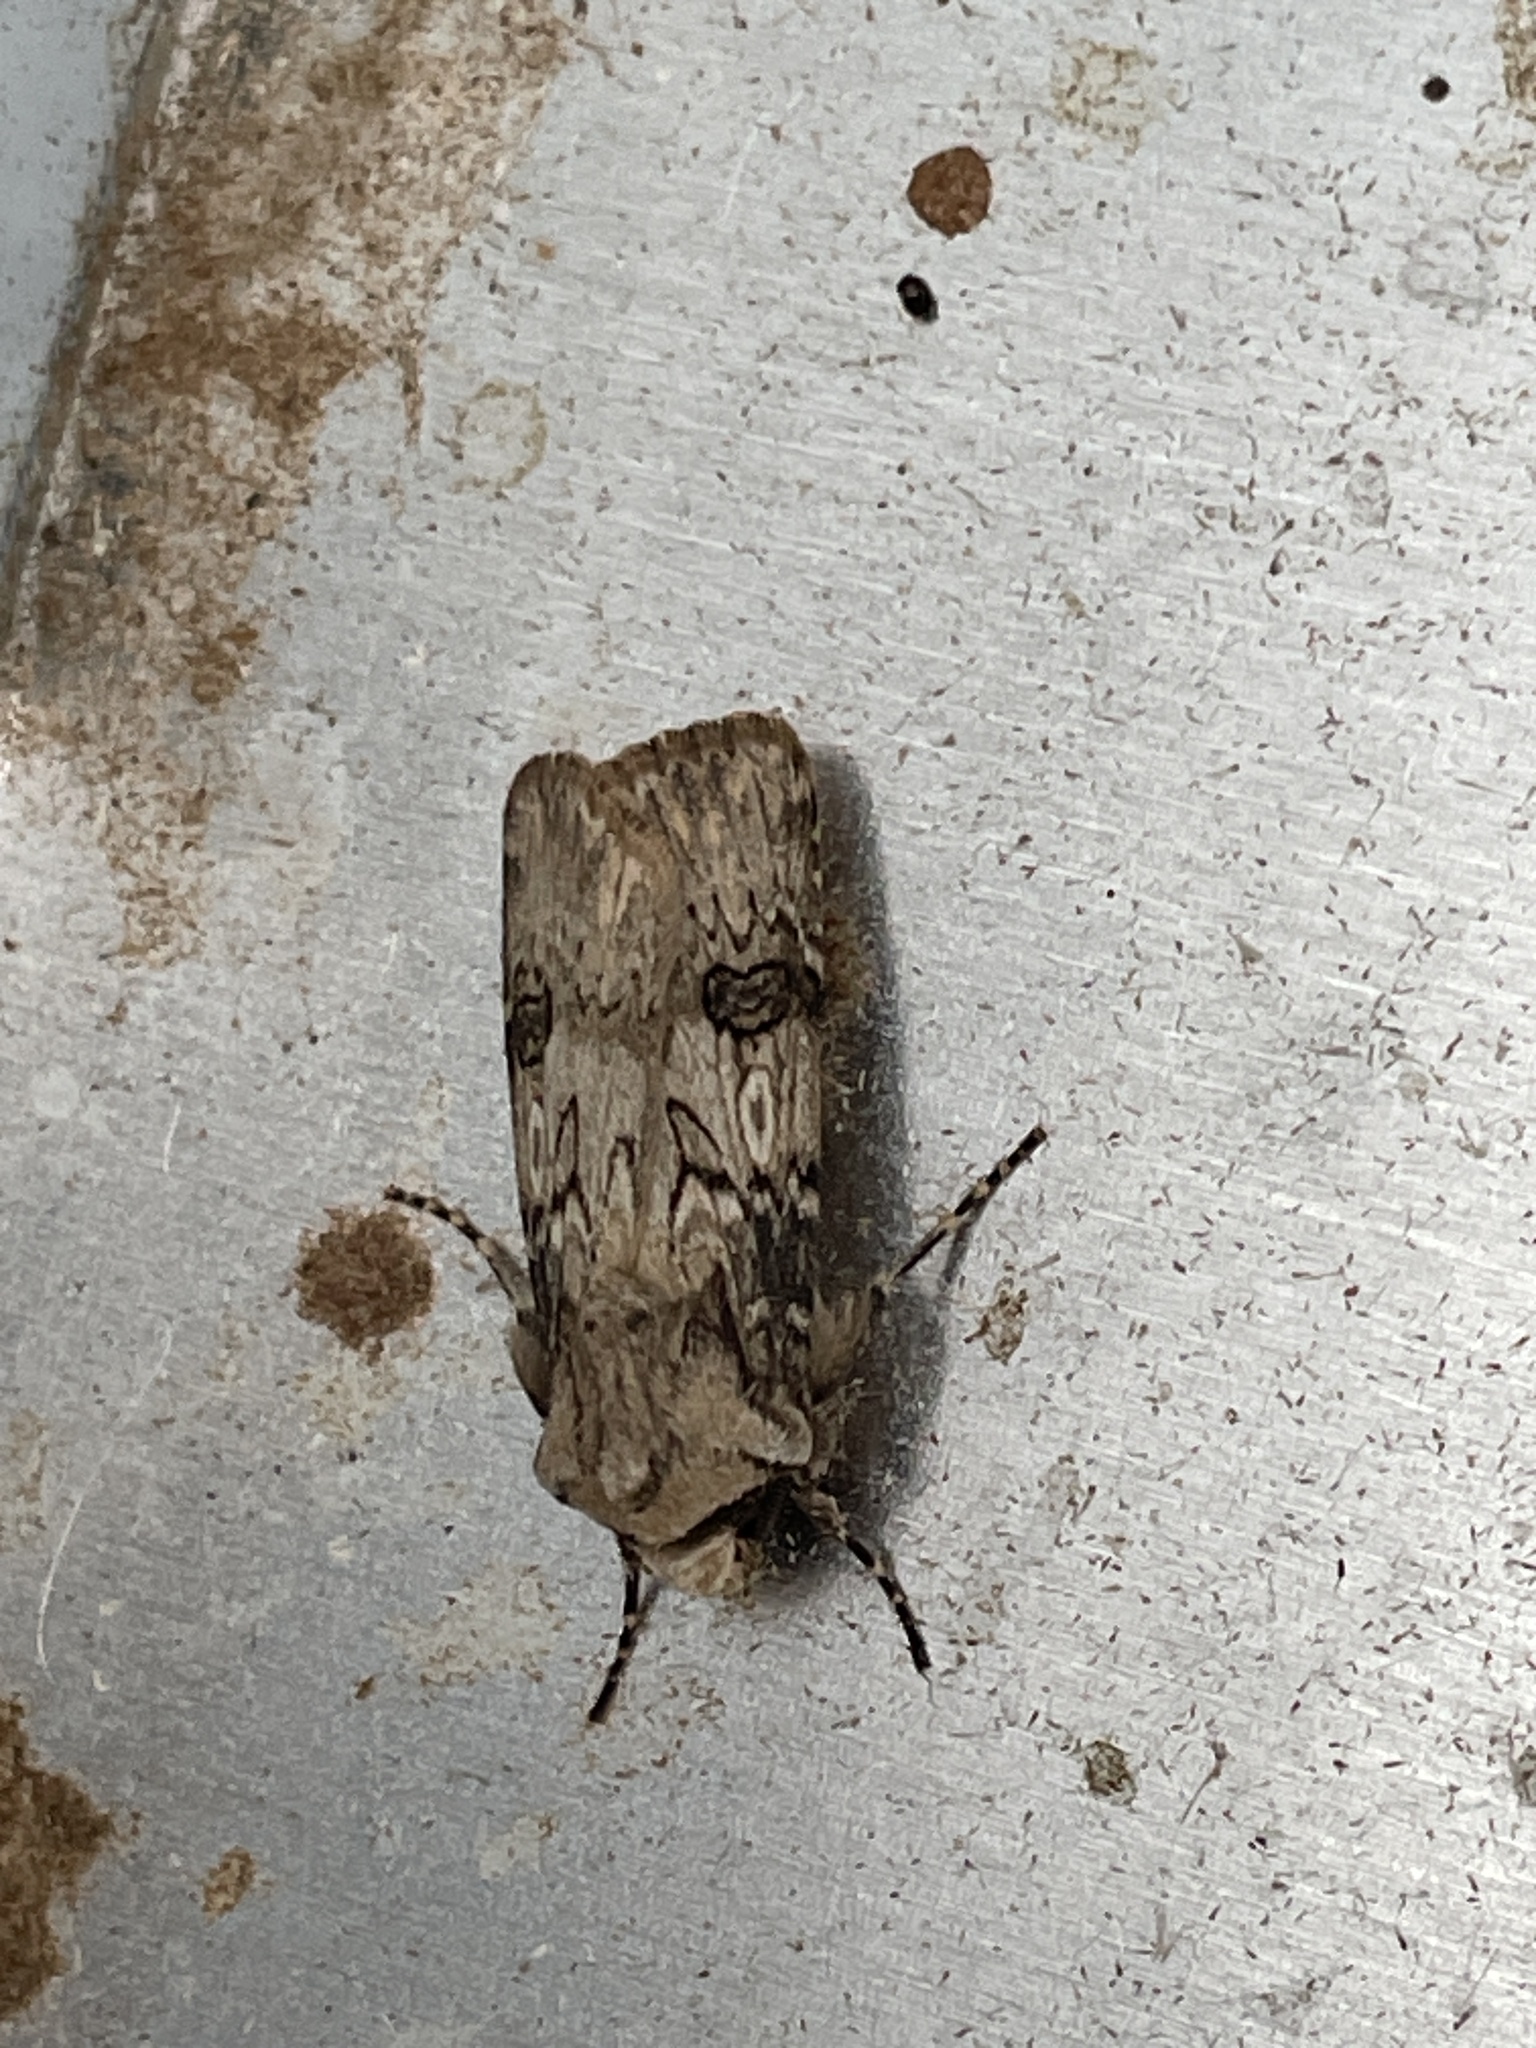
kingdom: Animalia
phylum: Arthropoda
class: Insecta
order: Lepidoptera
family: Noctuidae
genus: Agrotis
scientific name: Agrotis puta
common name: Shuttle-shaped dart
